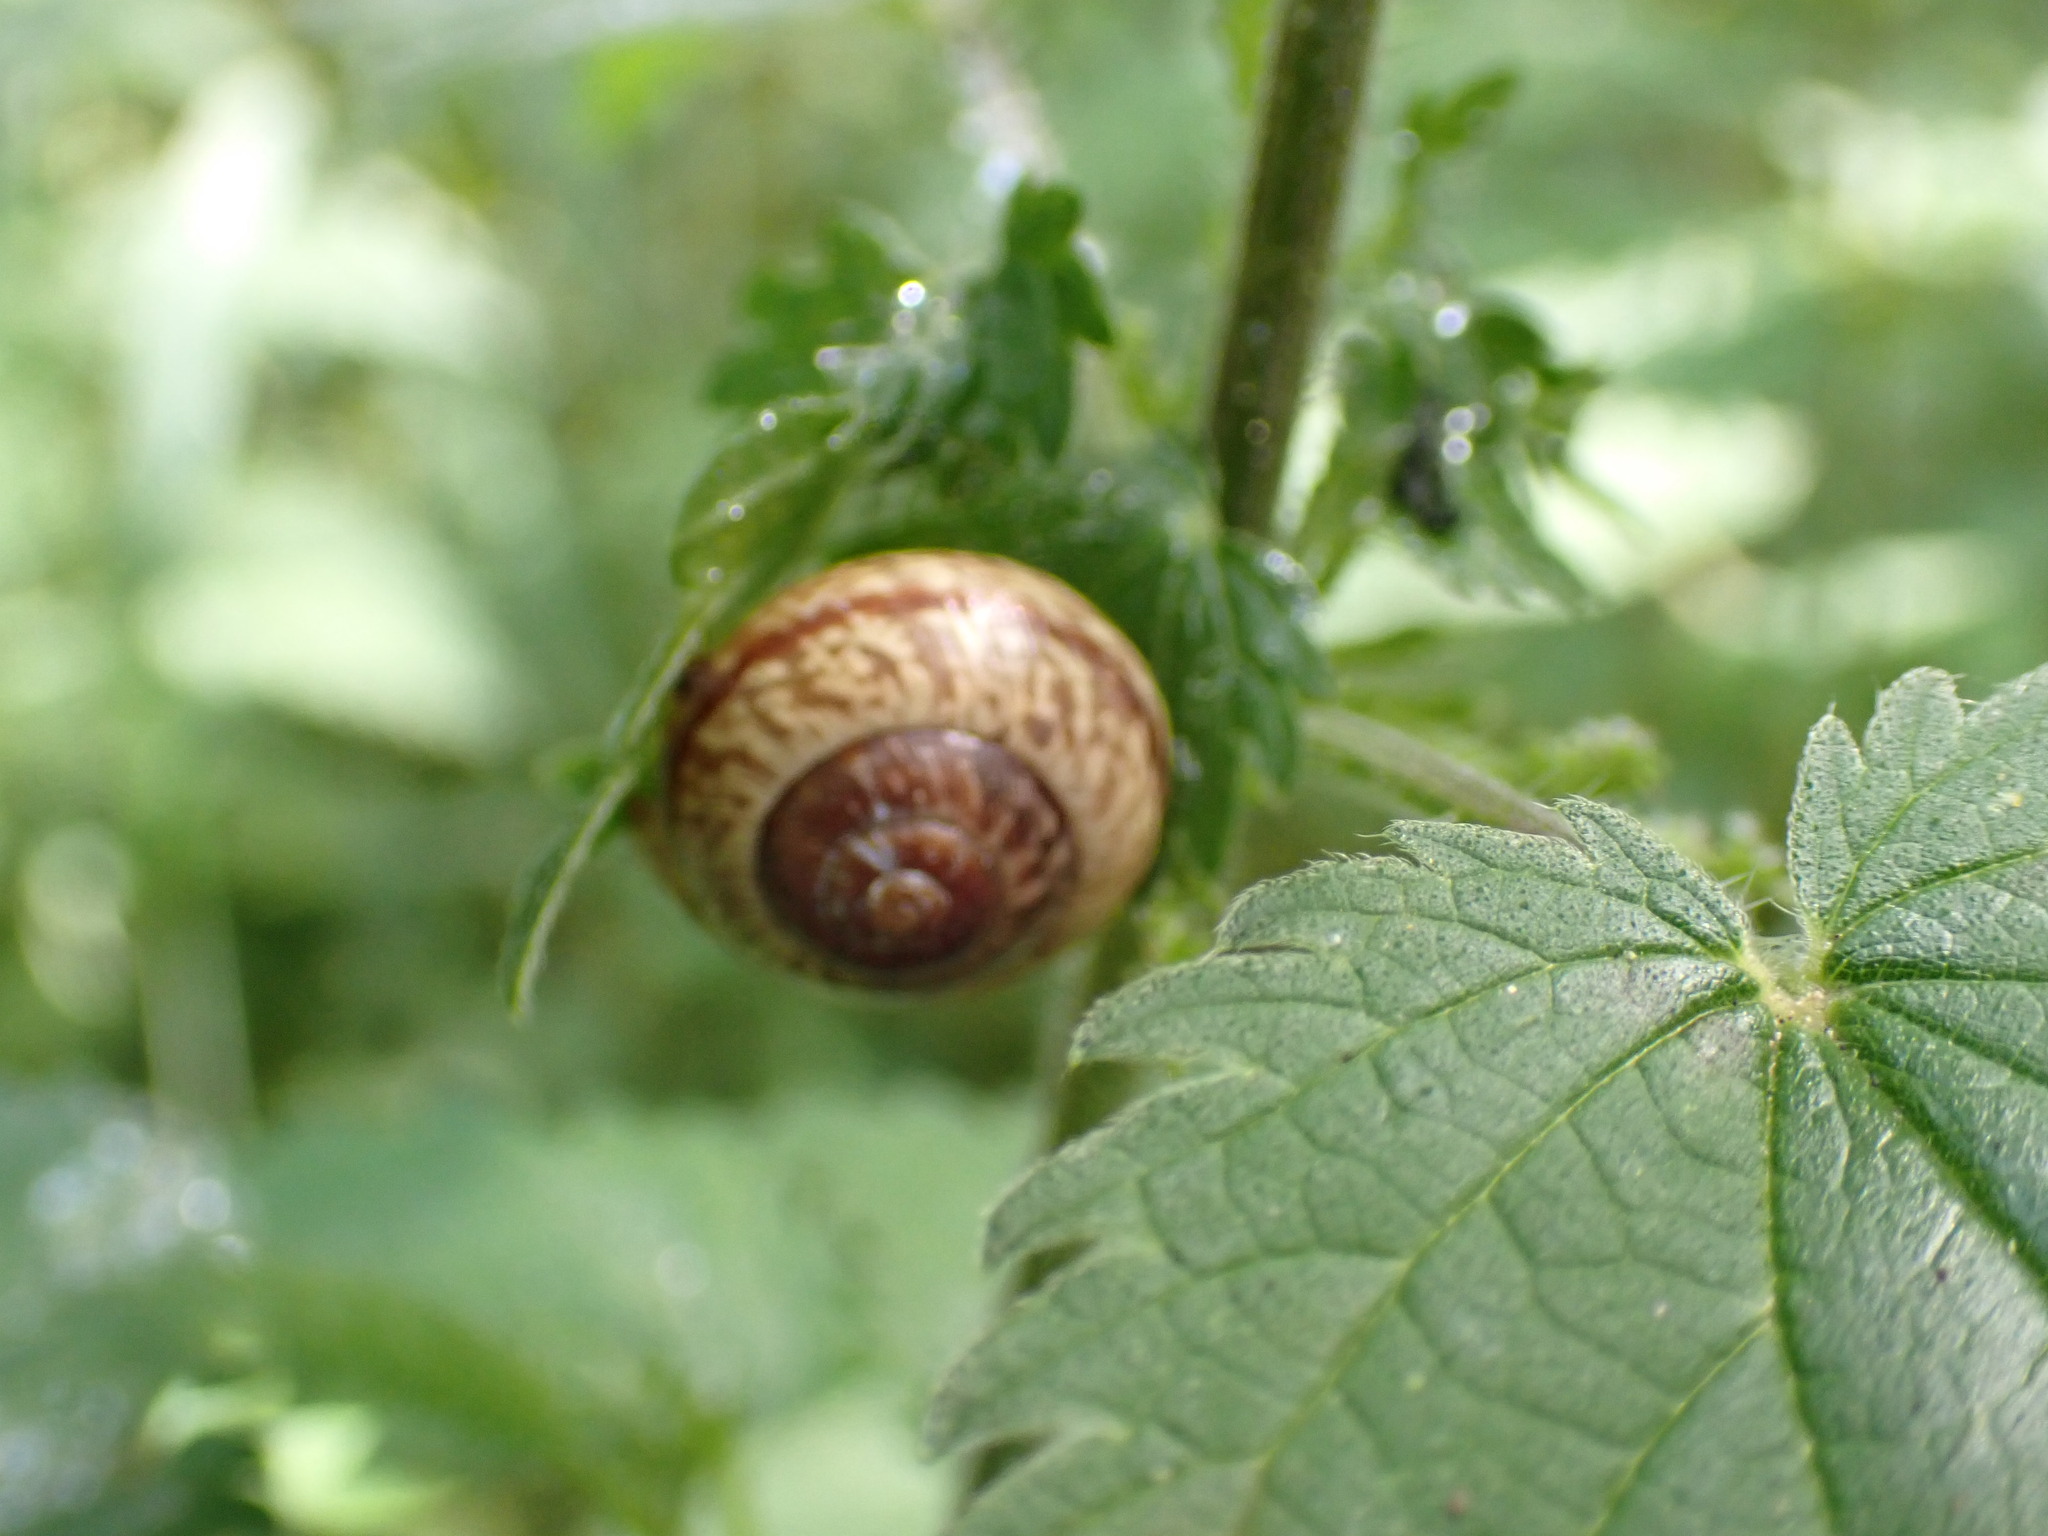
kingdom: Animalia
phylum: Mollusca
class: Gastropoda
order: Stylommatophora
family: Helicidae
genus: Arianta
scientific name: Arianta arbustorum
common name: Copse snail
